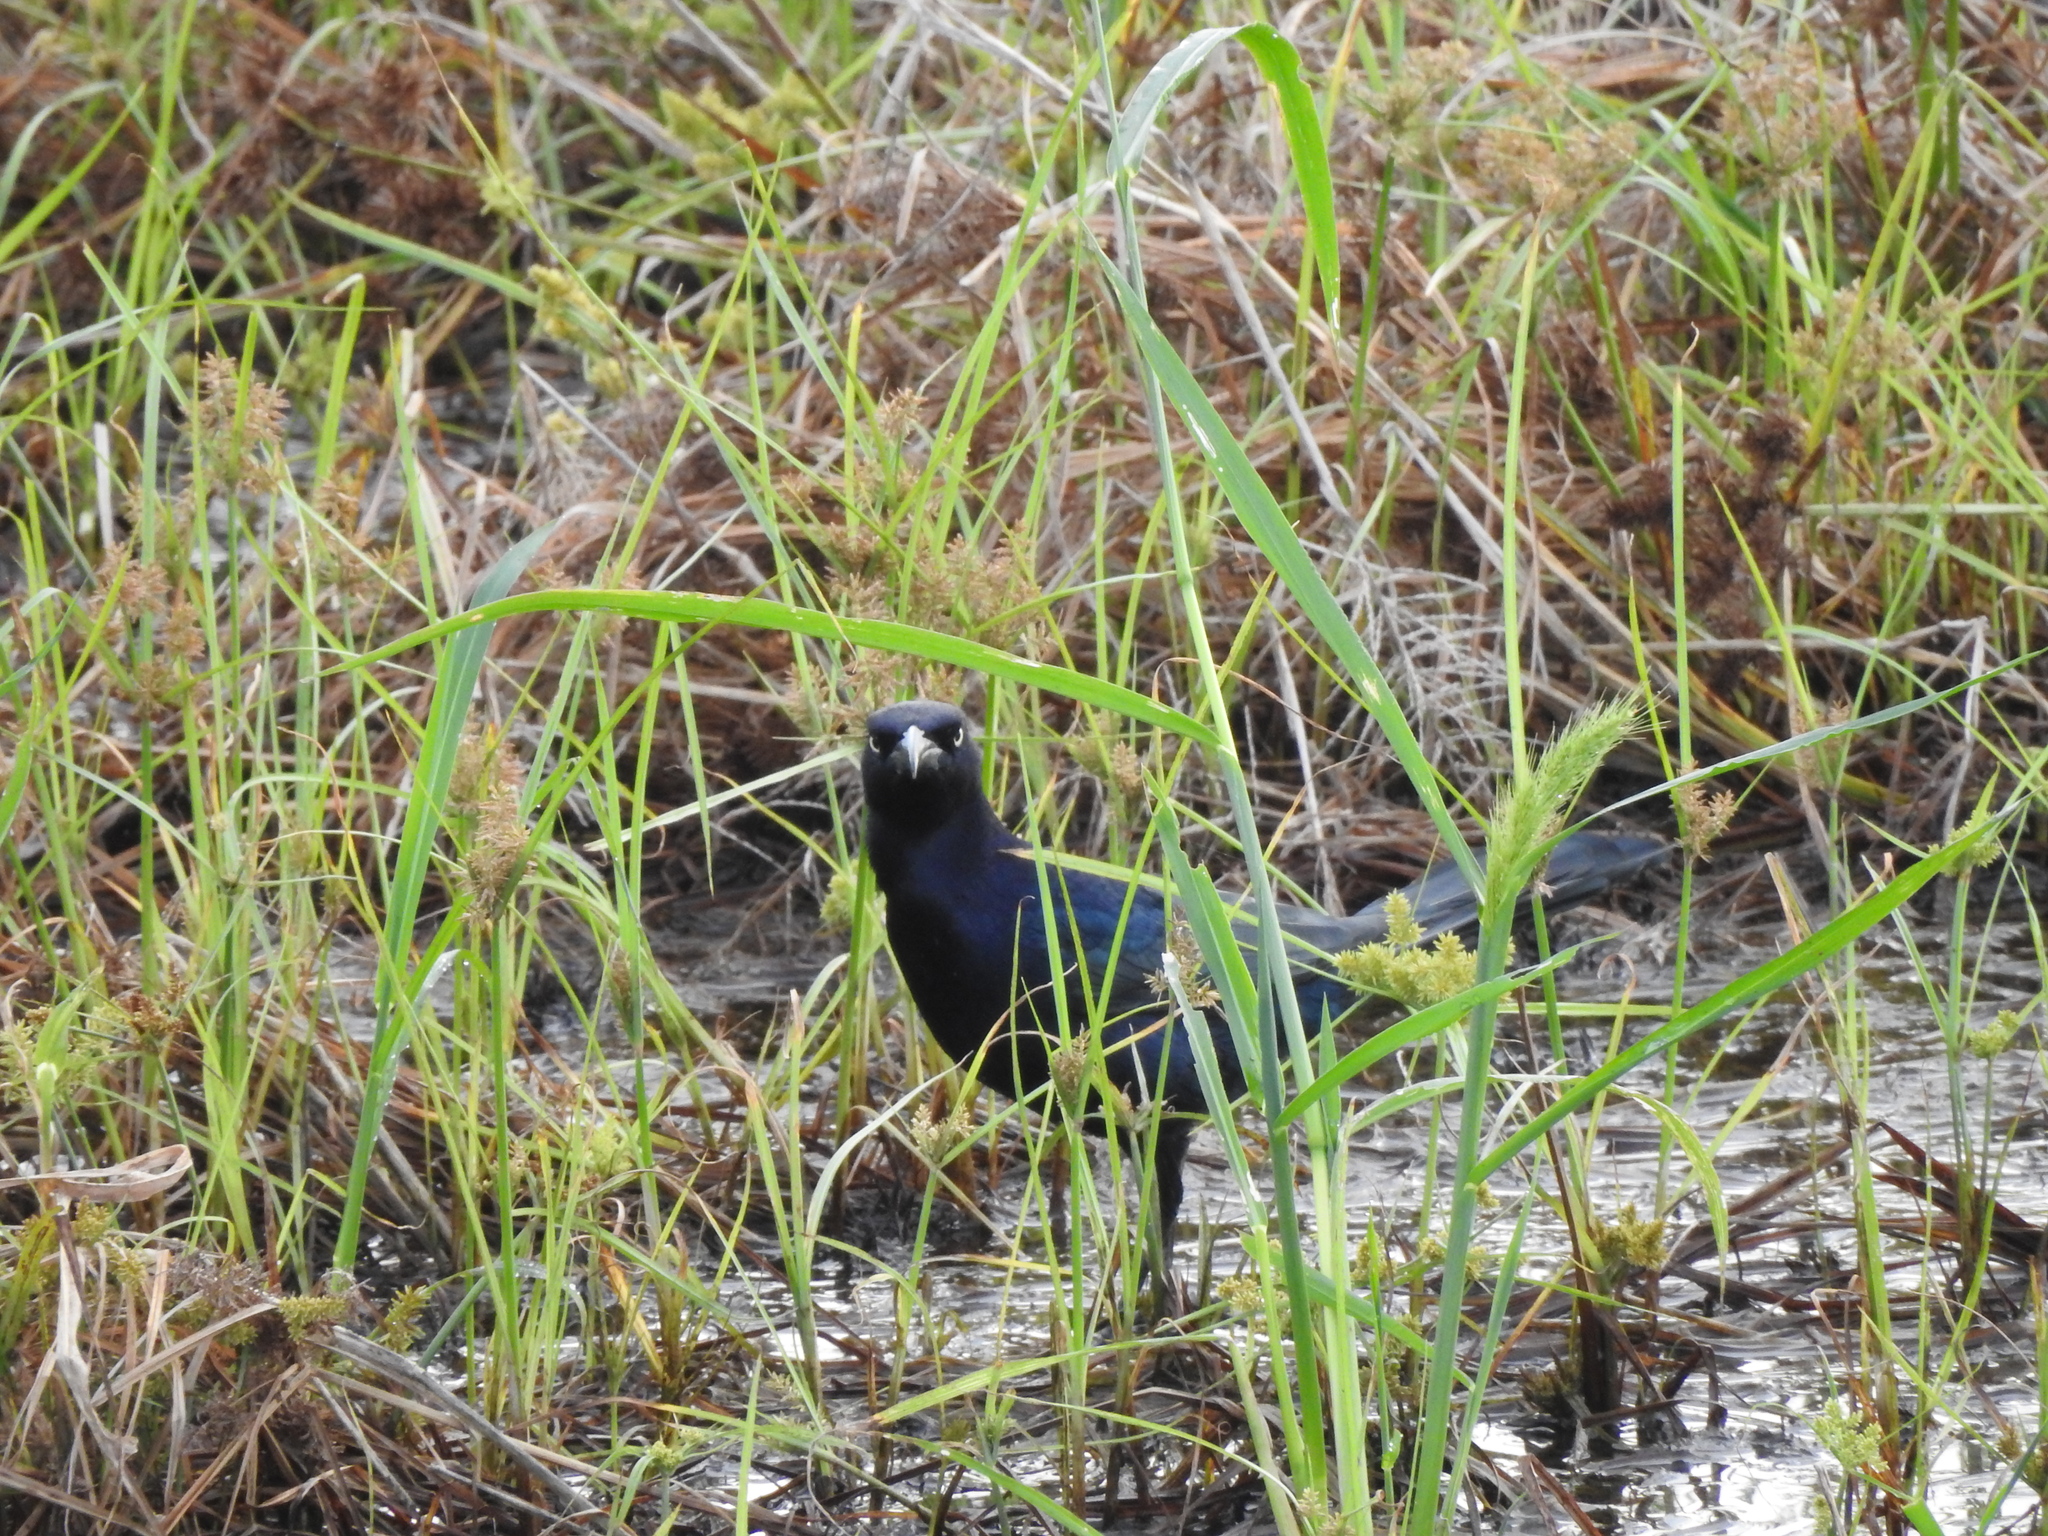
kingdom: Animalia
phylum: Chordata
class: Aves
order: Passeriformes
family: Icteridae
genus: Quiscalus
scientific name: Quiscalus mexicanus
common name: Great-tailed grackle
